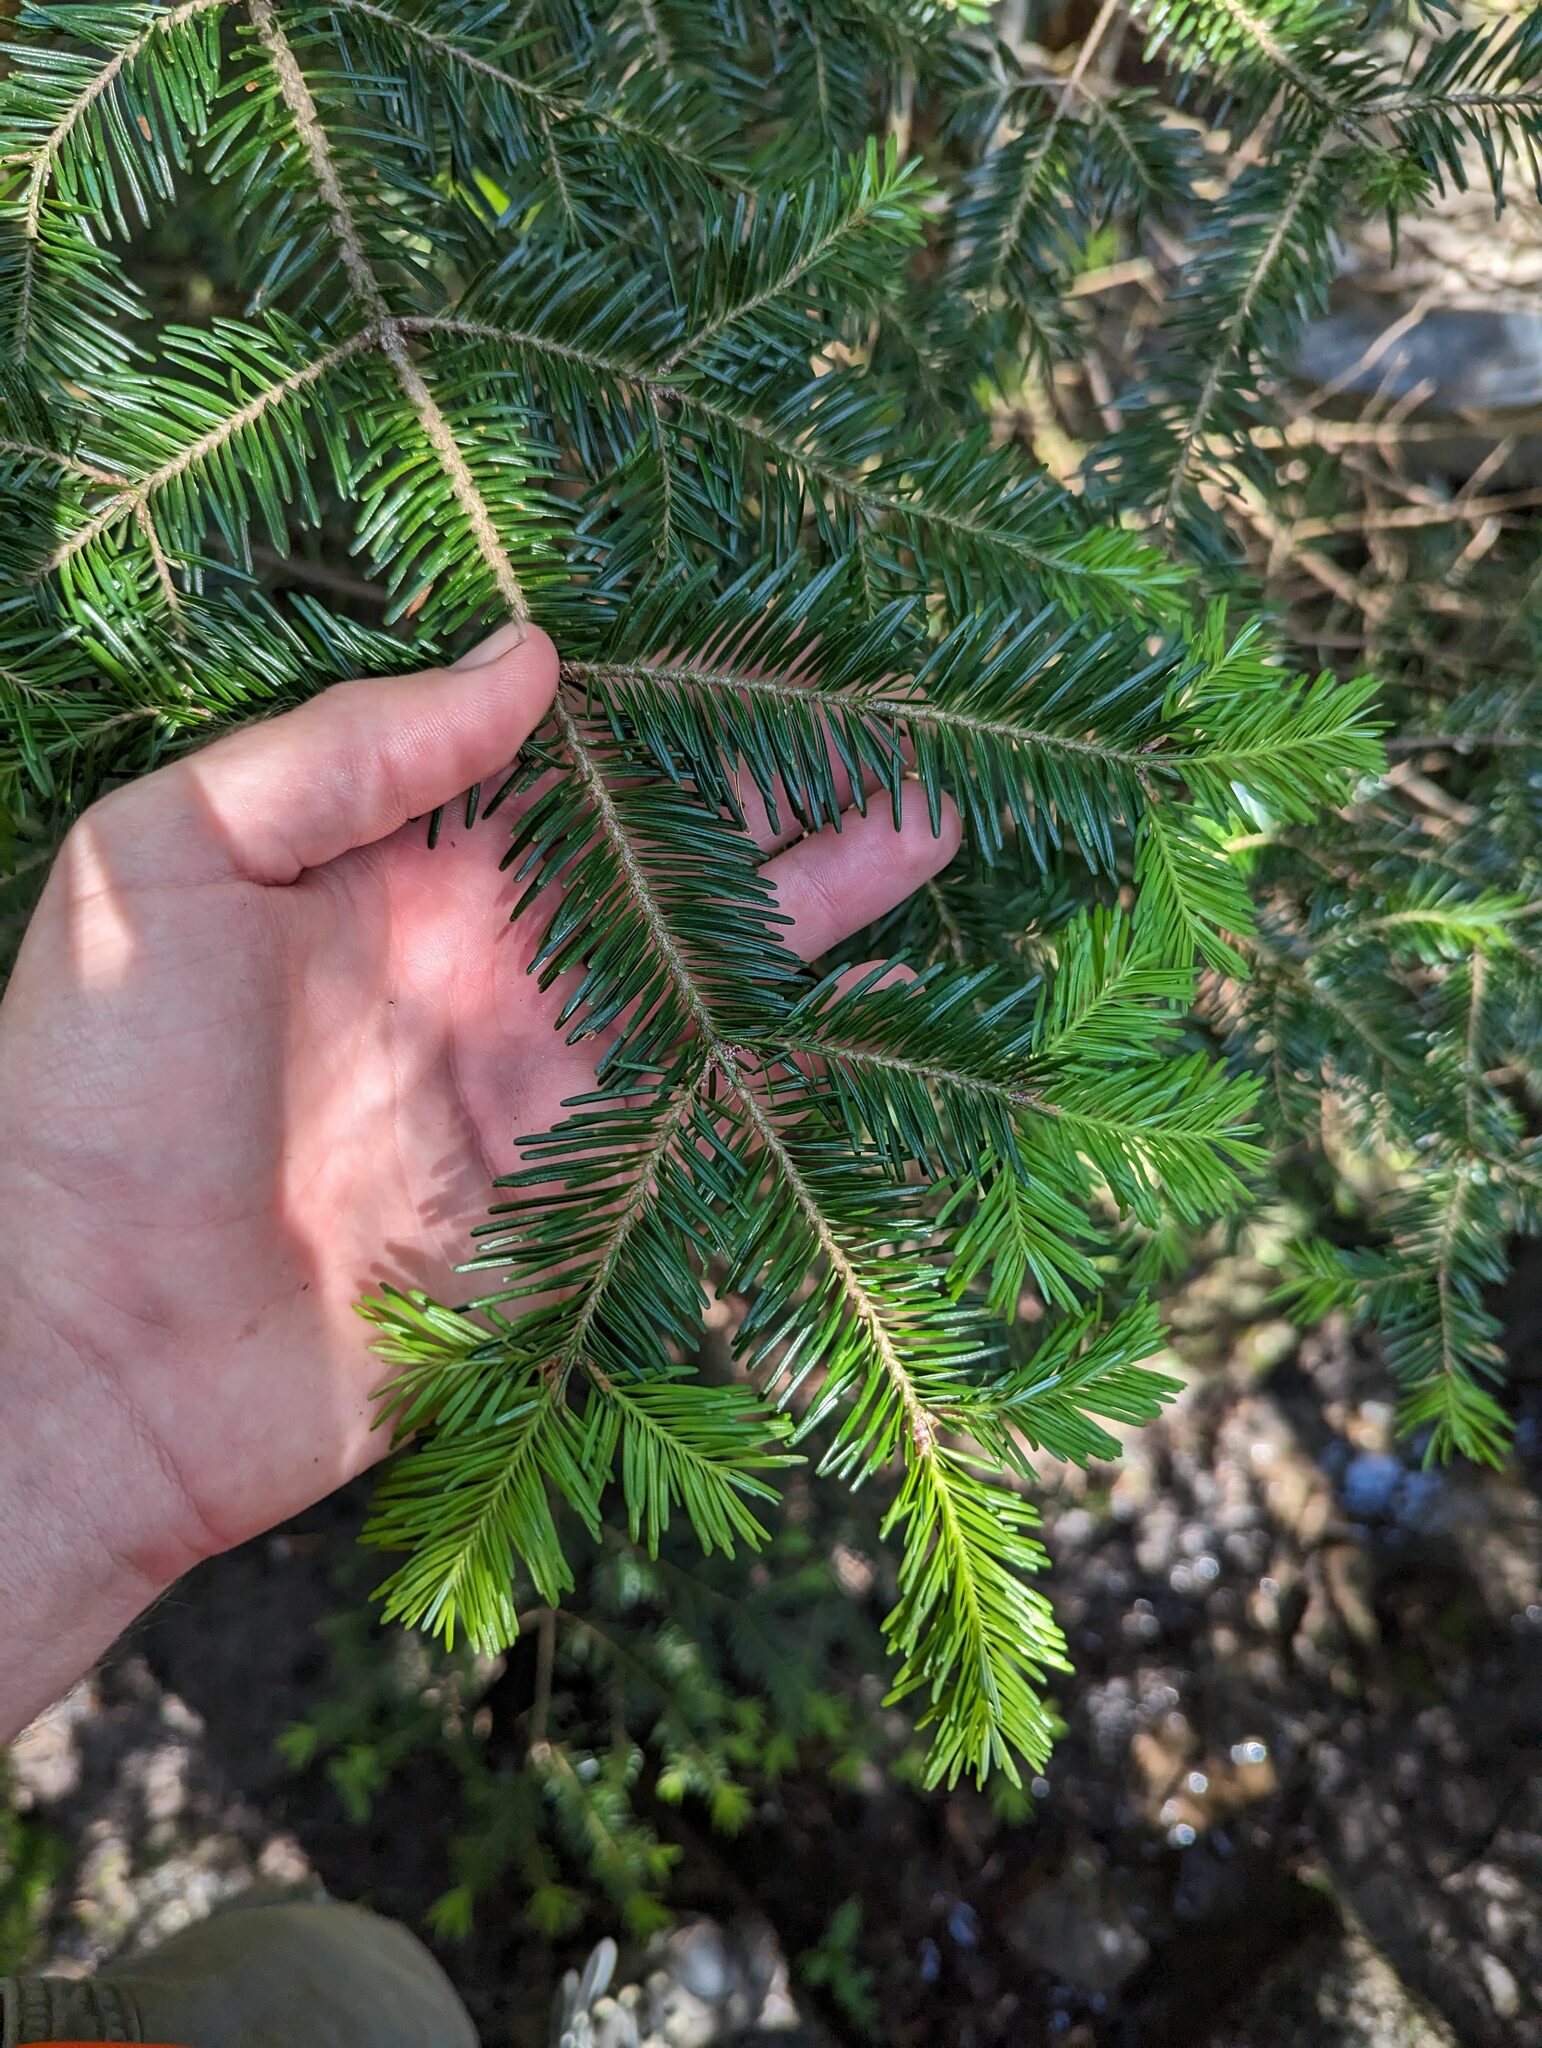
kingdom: Plantae
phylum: Tracheophyta
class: Pinopsida
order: Pinales
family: Pinaceae
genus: Abies
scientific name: Abies balsamea
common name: Balsam fir
